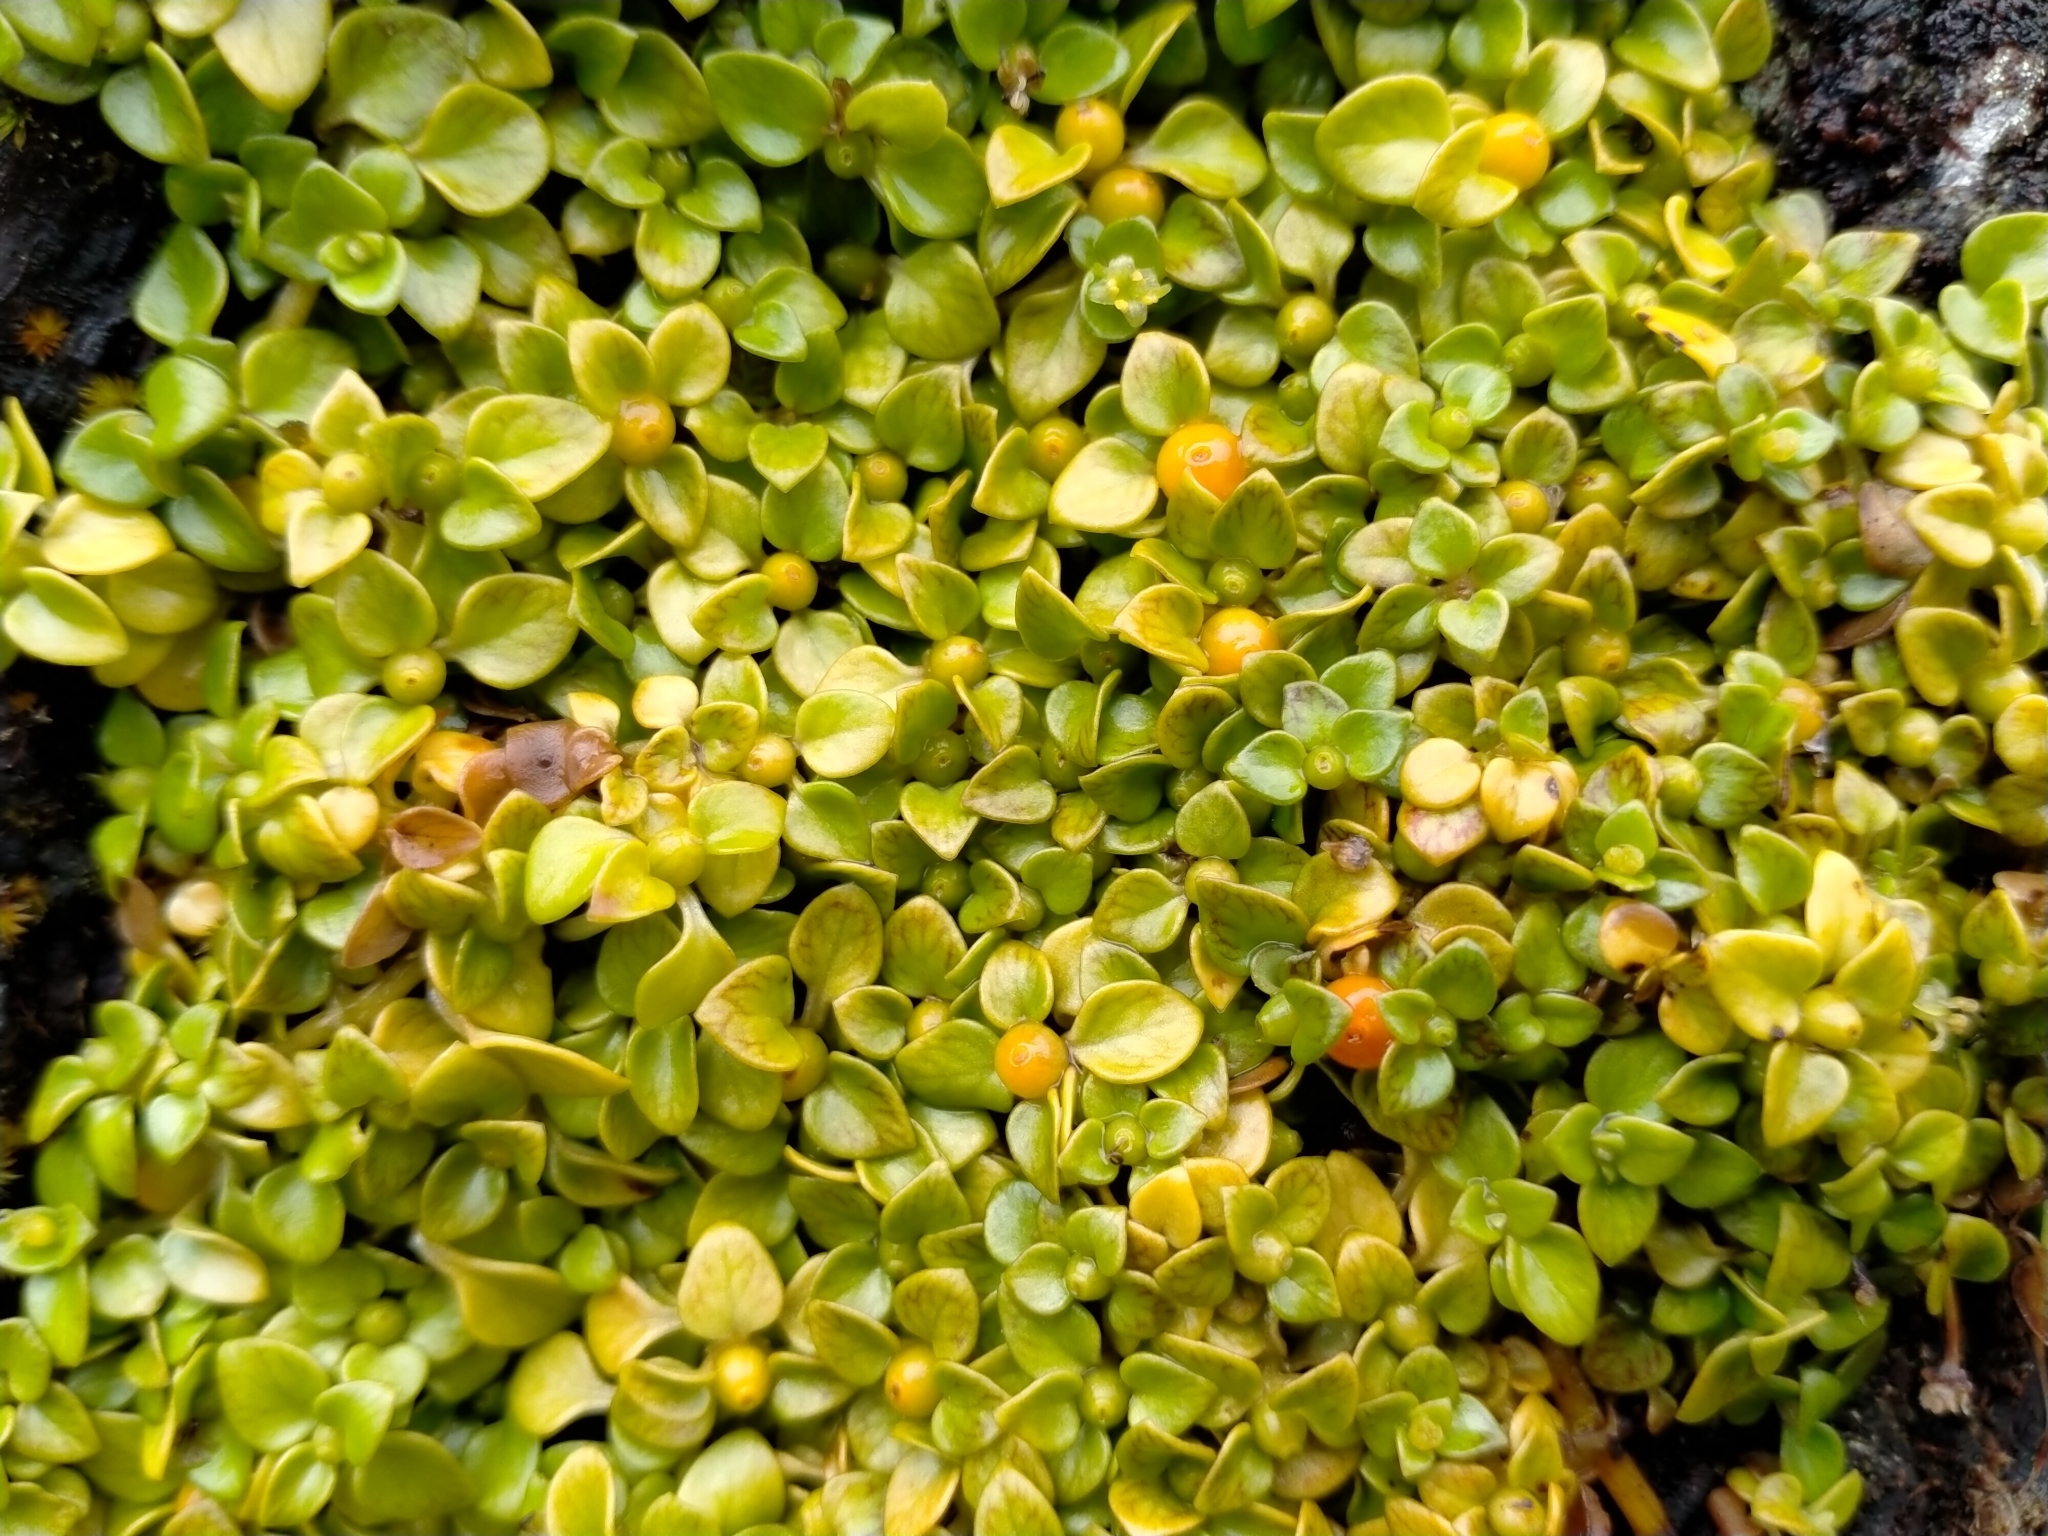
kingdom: Plantae
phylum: Tracheophyta
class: Magnoliopsida
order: Gentianales
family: Rubiaceae
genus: Nertera
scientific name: Nertera granadensis
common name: Beadplant
